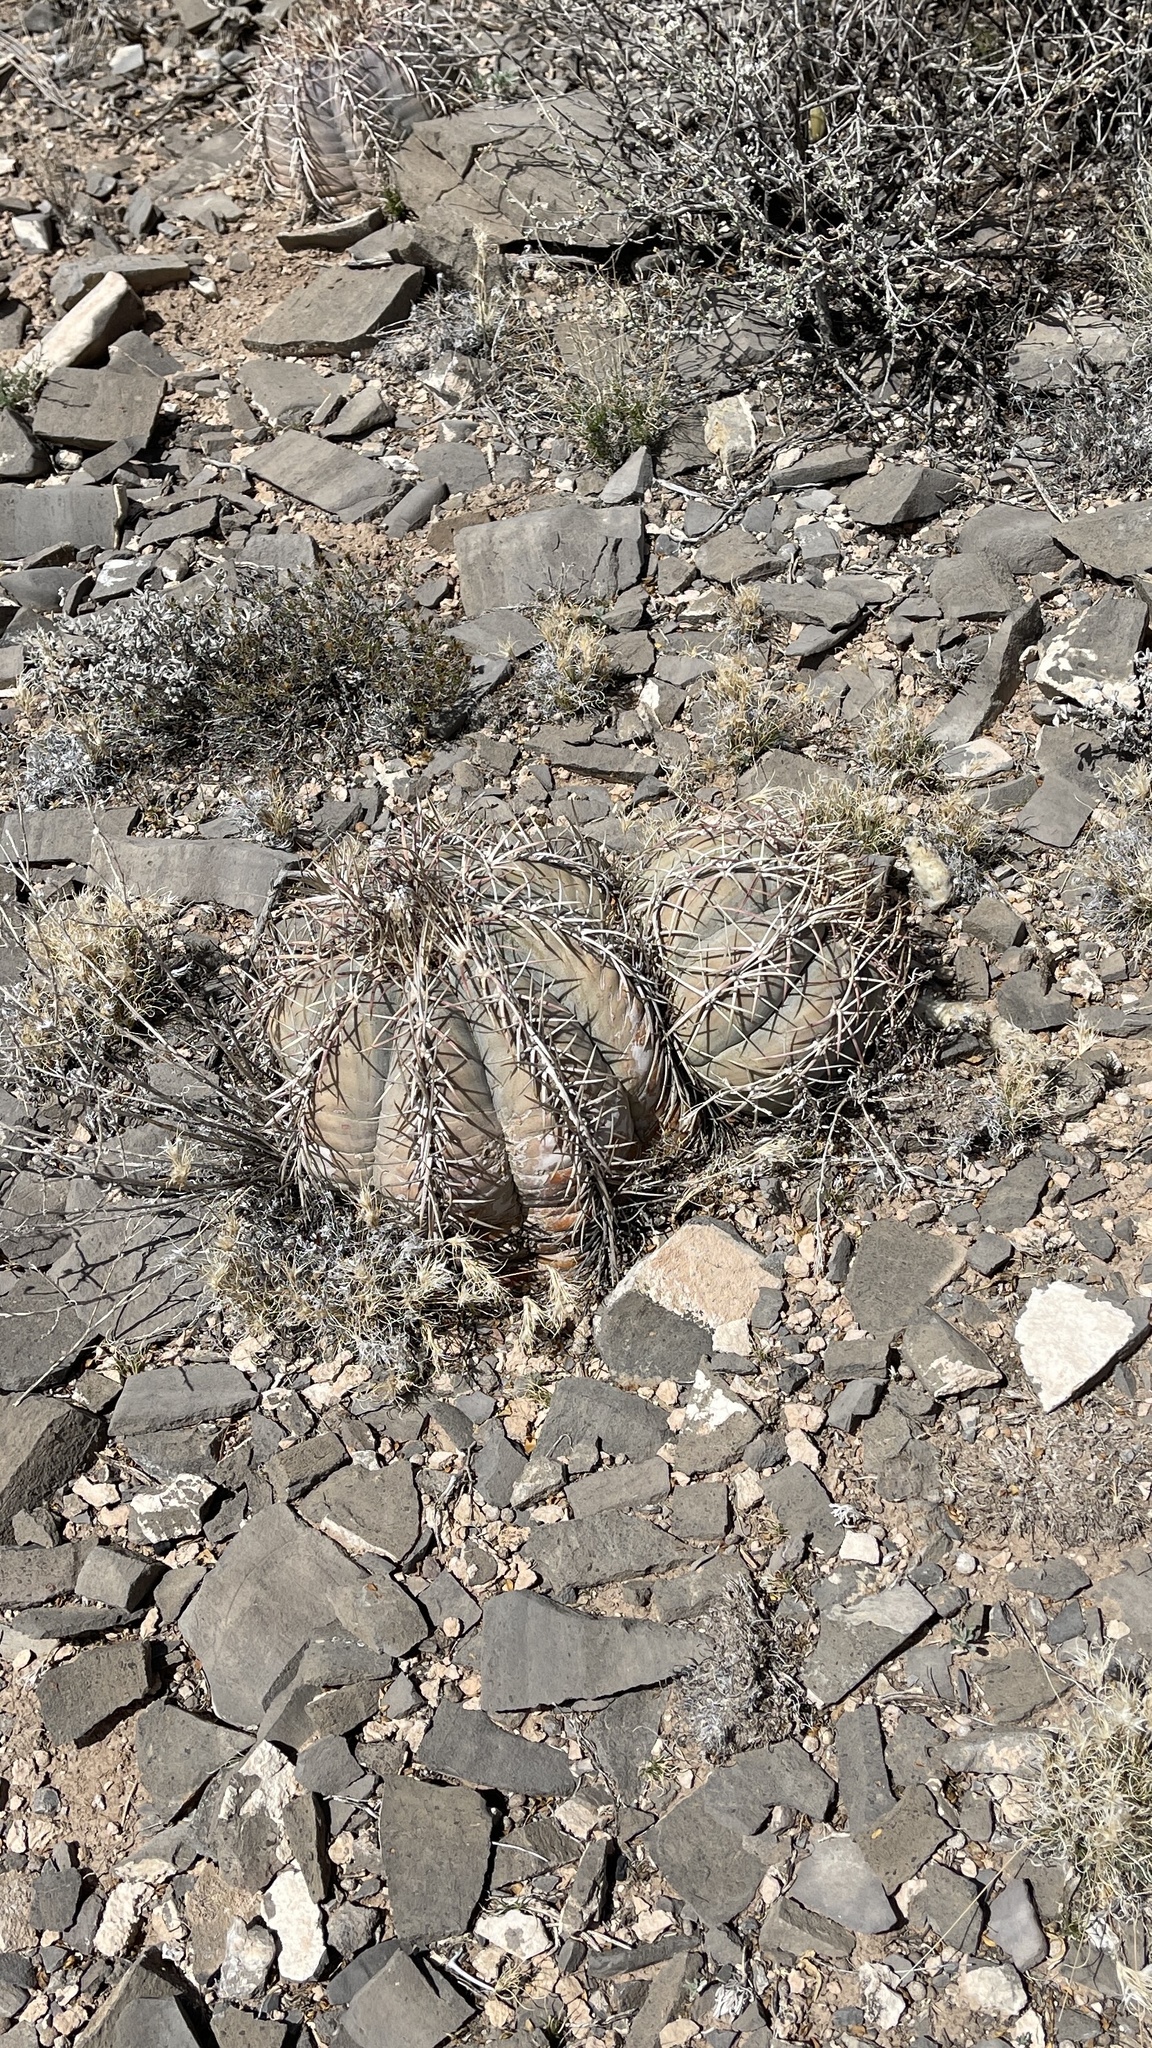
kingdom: Plantae
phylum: Tracheophyta
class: Magnoliopsida
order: Caryophyllales
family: Cactaceae
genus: Echinocactus
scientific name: Echinocactus horizonthalonius
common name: Devilshead
